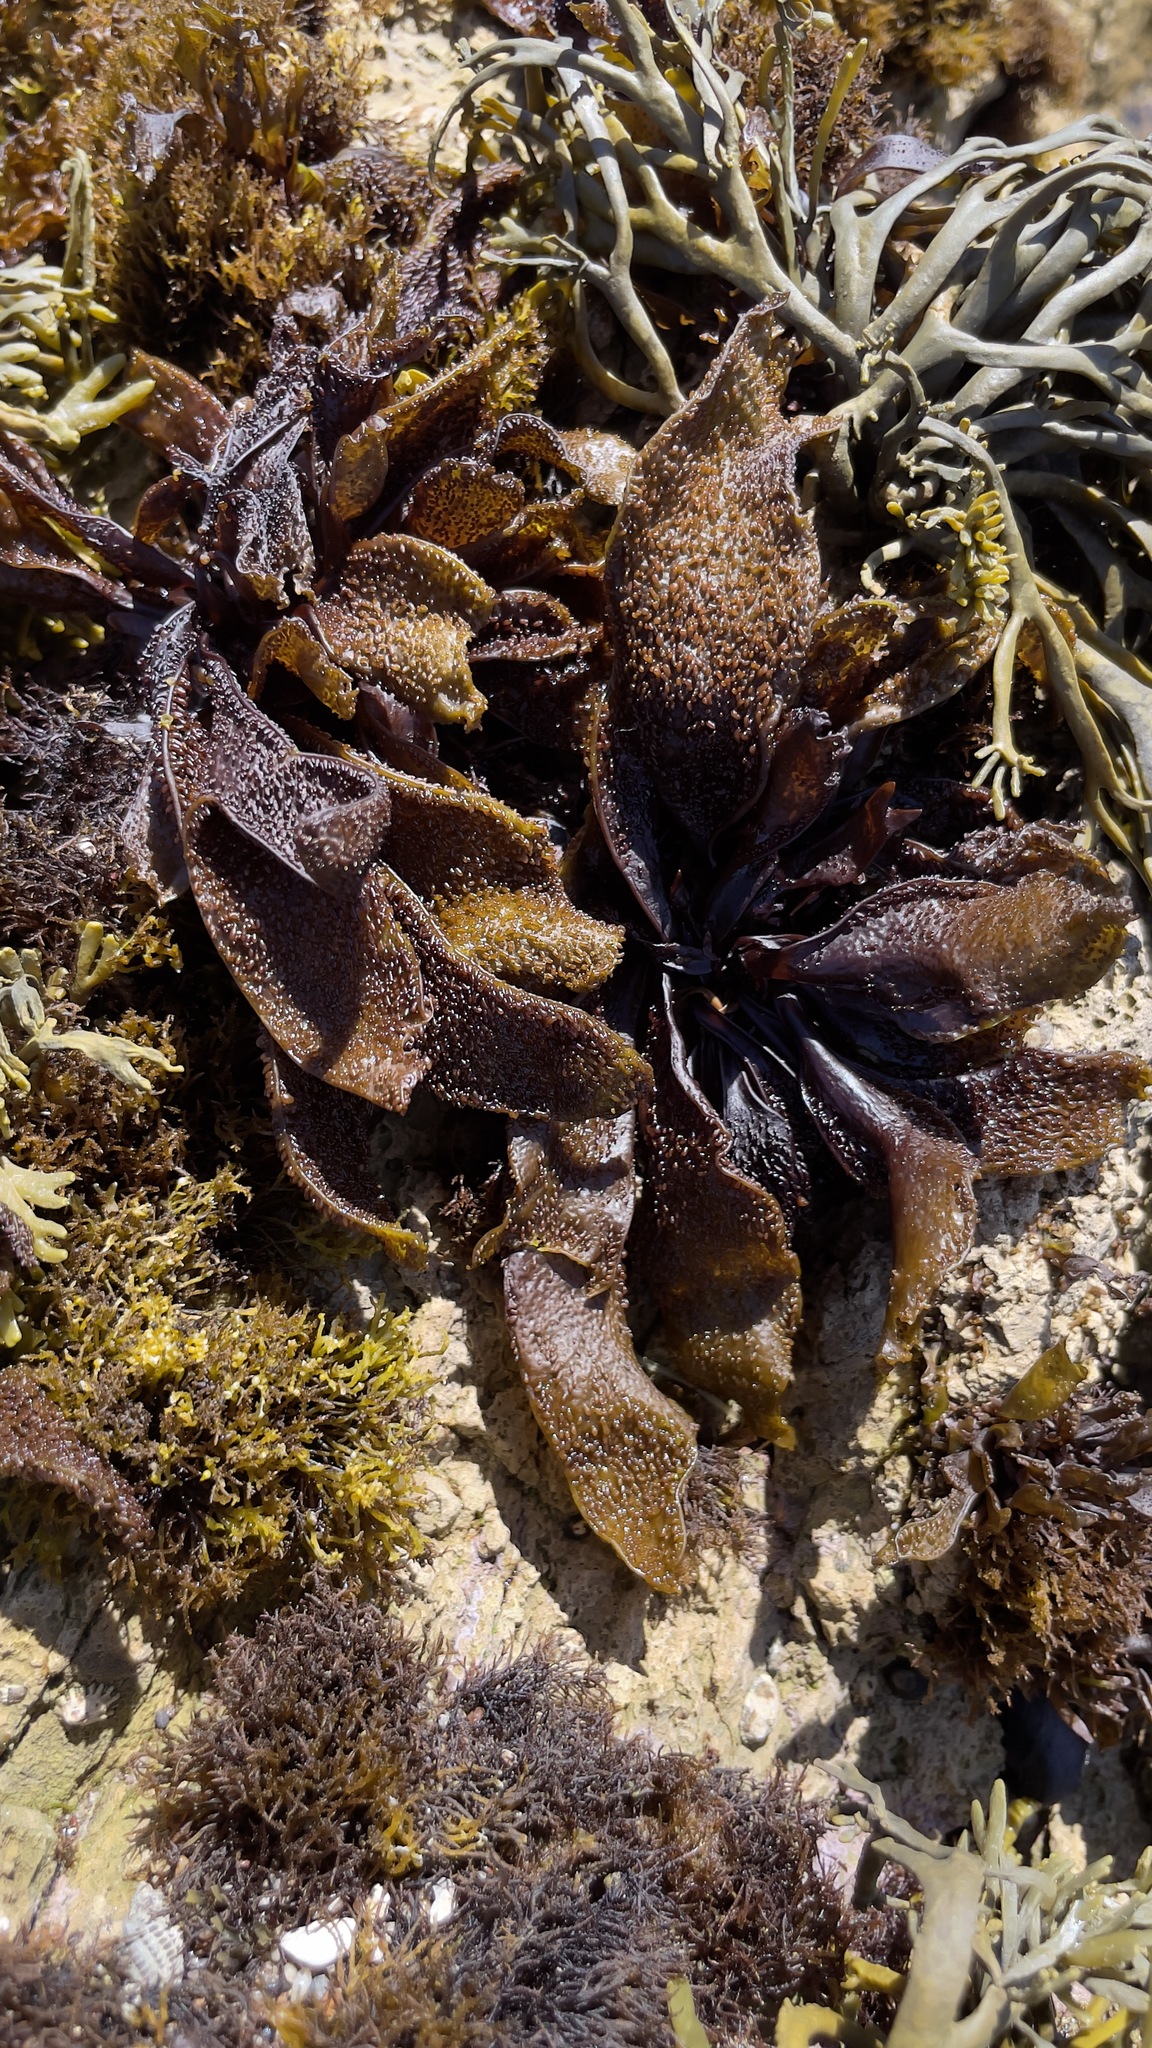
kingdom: Plantae
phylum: Rhodophyta
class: Florideophyceae
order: Gigartinales
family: Phyllophoraceae
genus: Mastocarpus
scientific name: Mastocarpus papillatus
